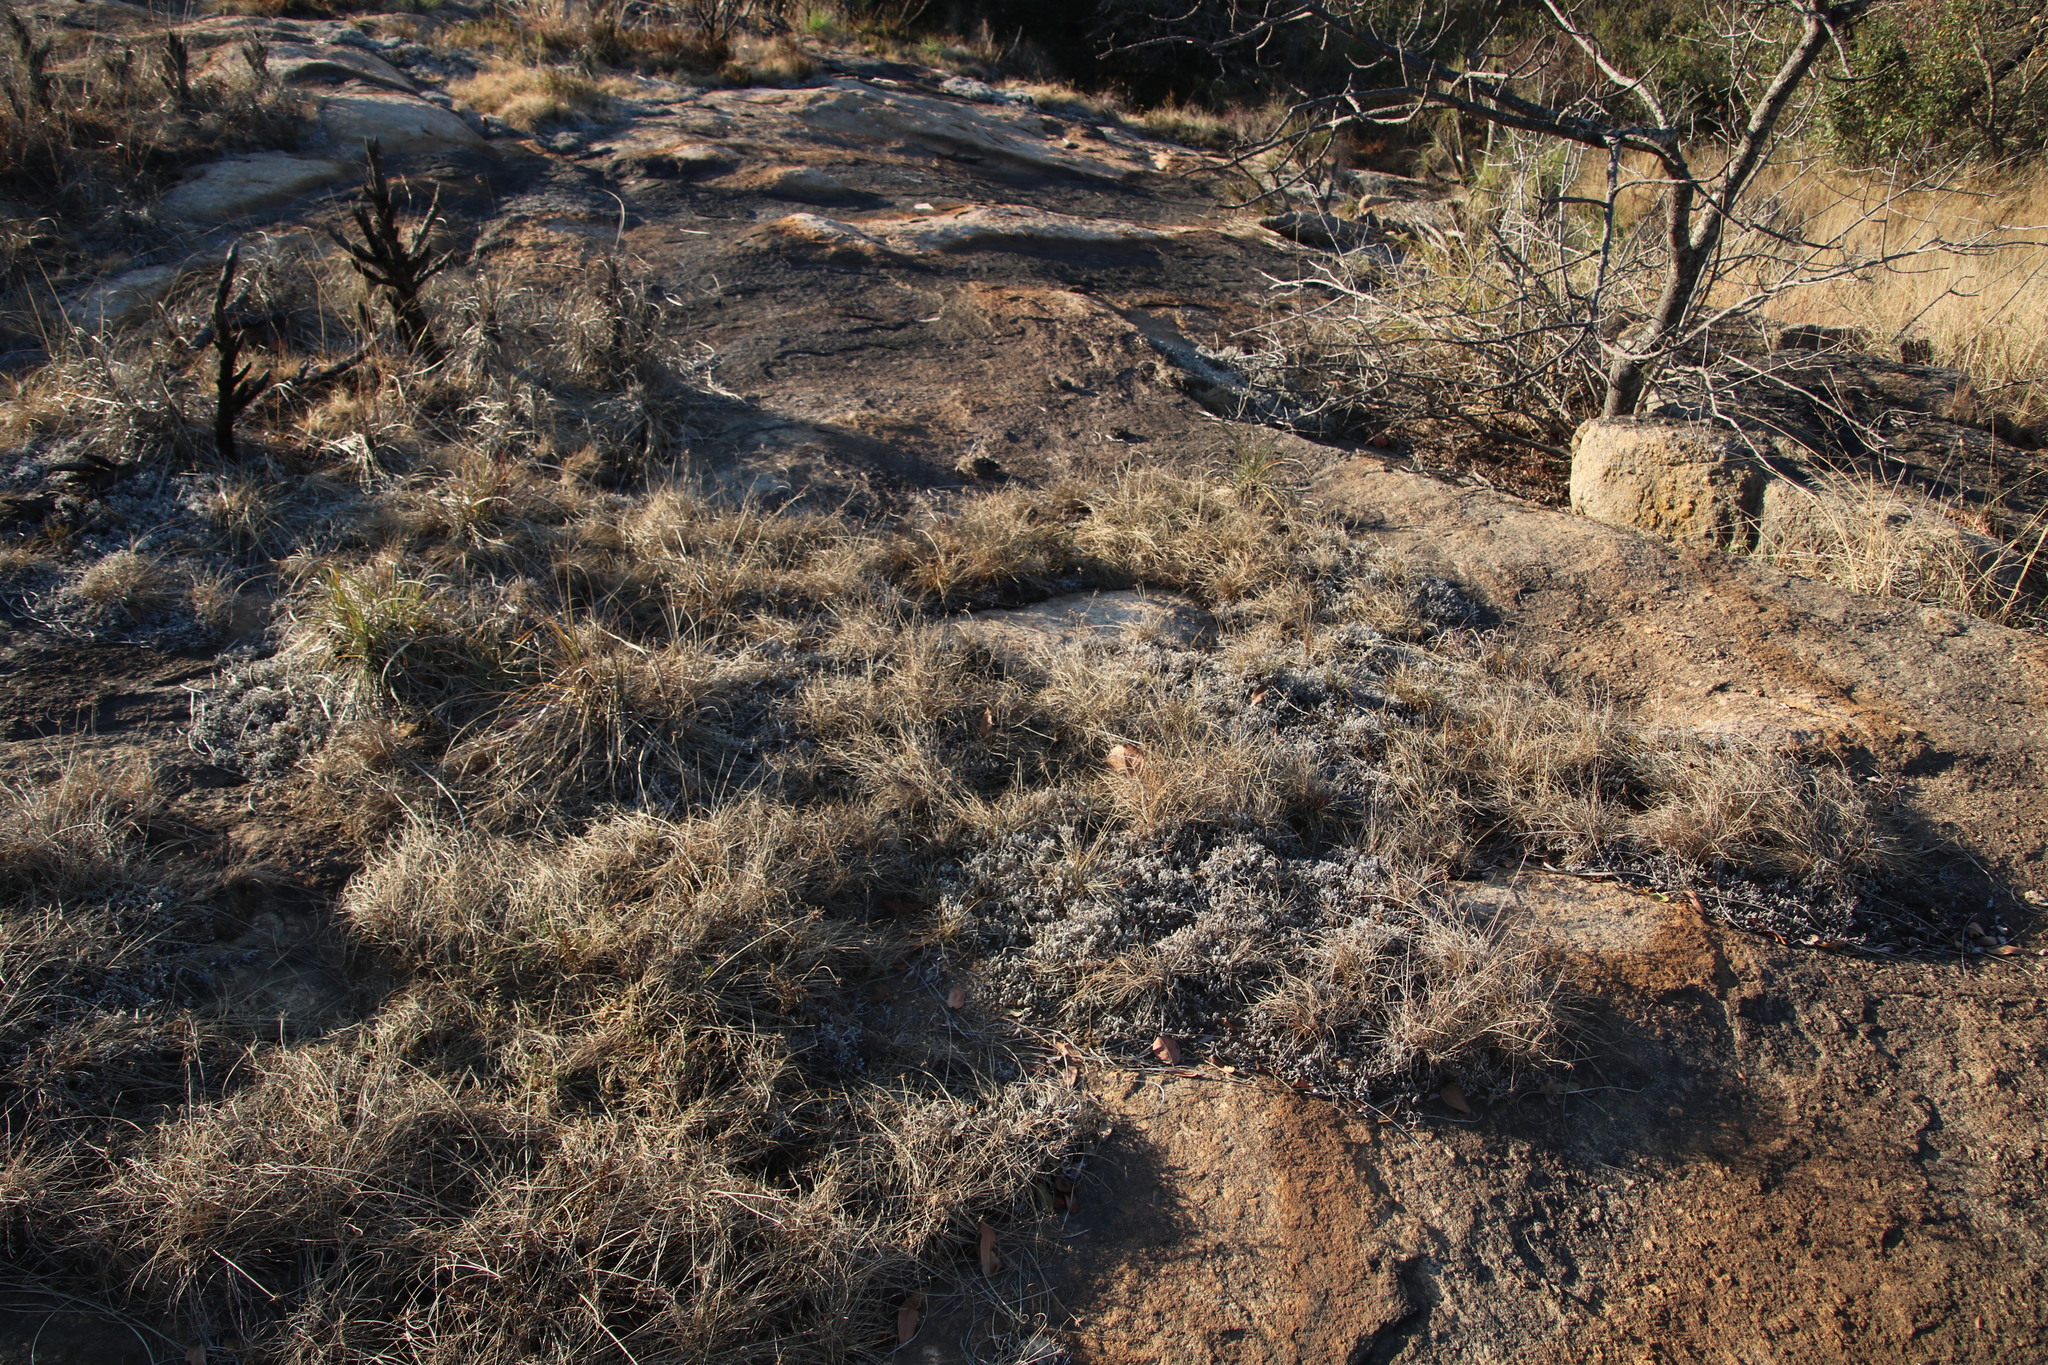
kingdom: Plantae
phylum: Tracheophyta
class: Liliopsida
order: Poales
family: Cyperaceae
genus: Cyperus
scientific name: Cyperus semitrifidus
